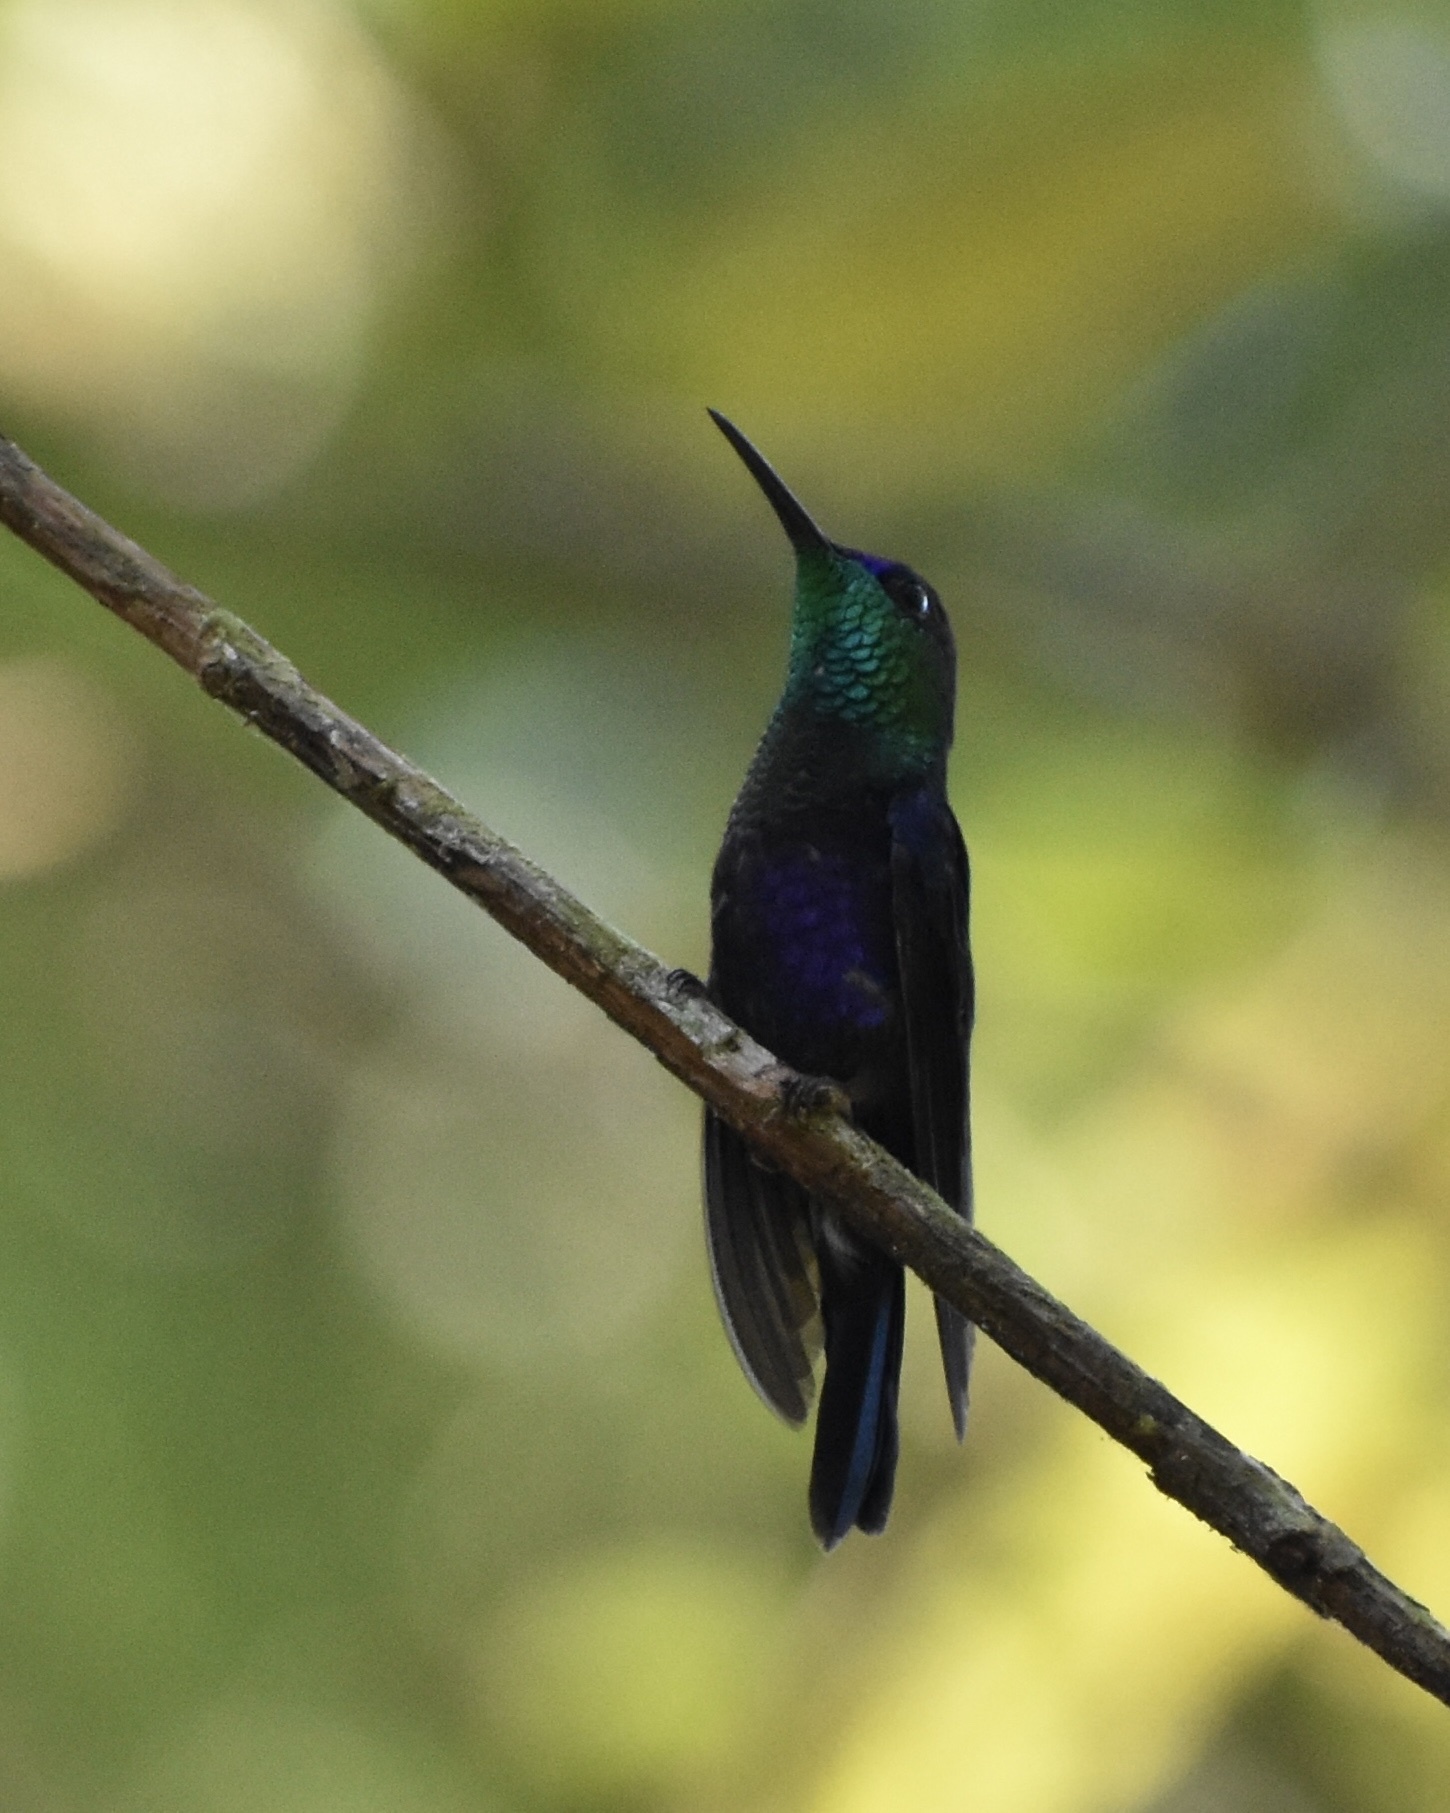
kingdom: Animalia
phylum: Chordata
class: Aves
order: Apodiformes
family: Trochilidae
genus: Thalurania
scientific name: Thalurania colombica
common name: Crowned woodnymph
